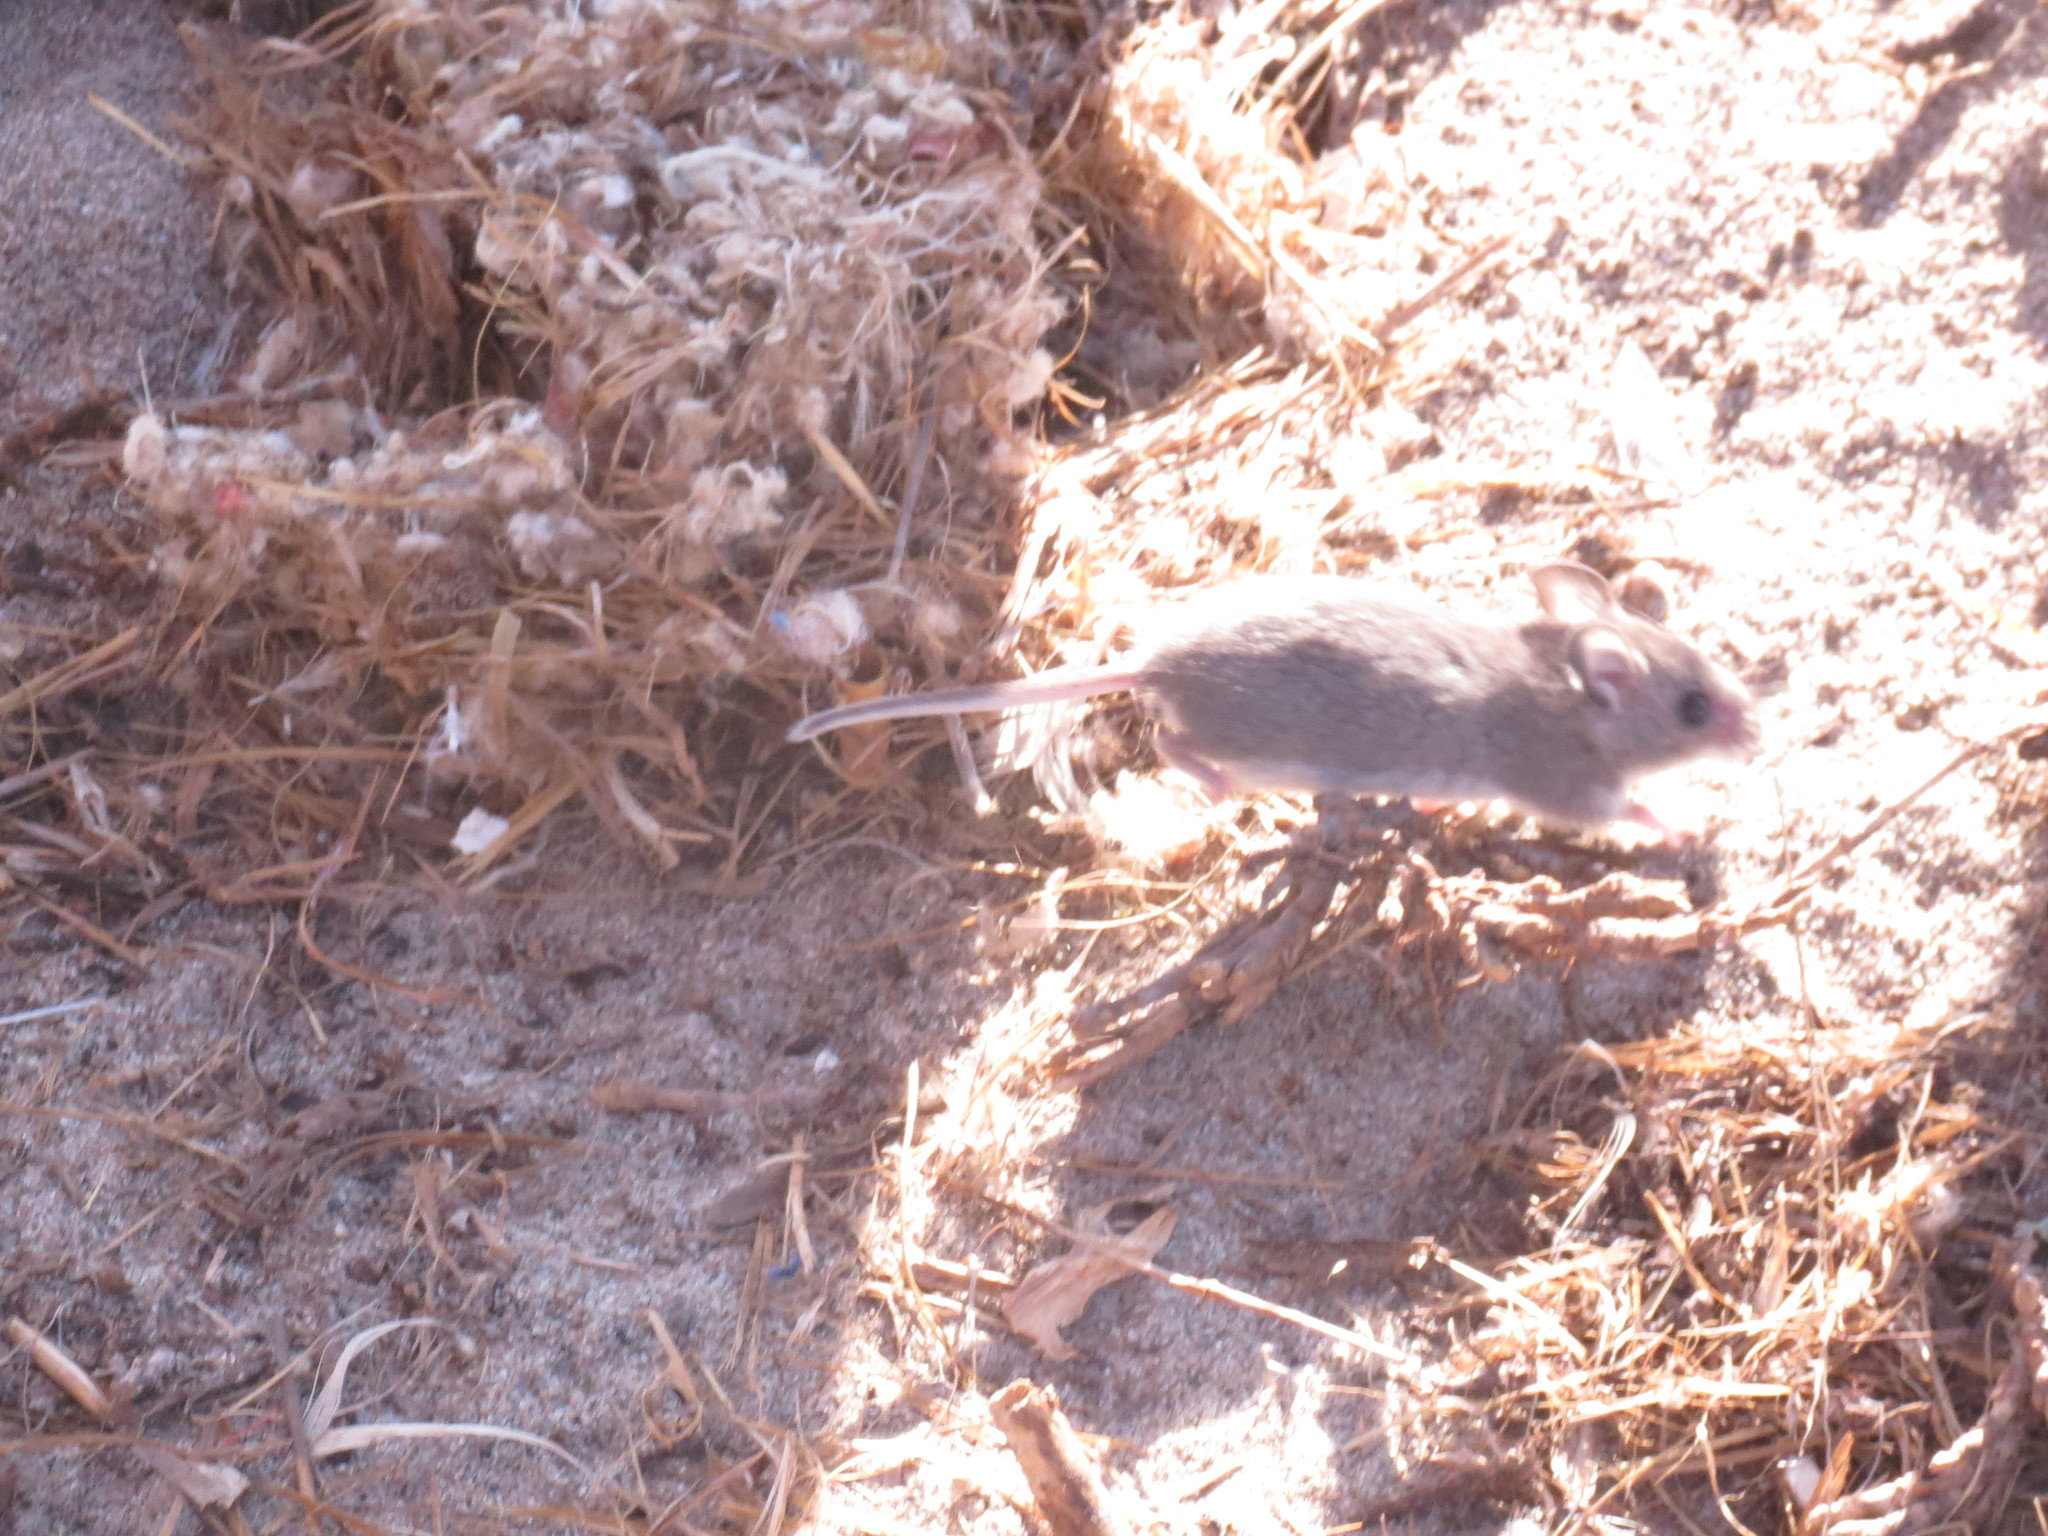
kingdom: Animalia
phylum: Chordata
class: Mammalia
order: Rodentia
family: Cricetidae
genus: Peromyscus
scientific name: Peromyscus
